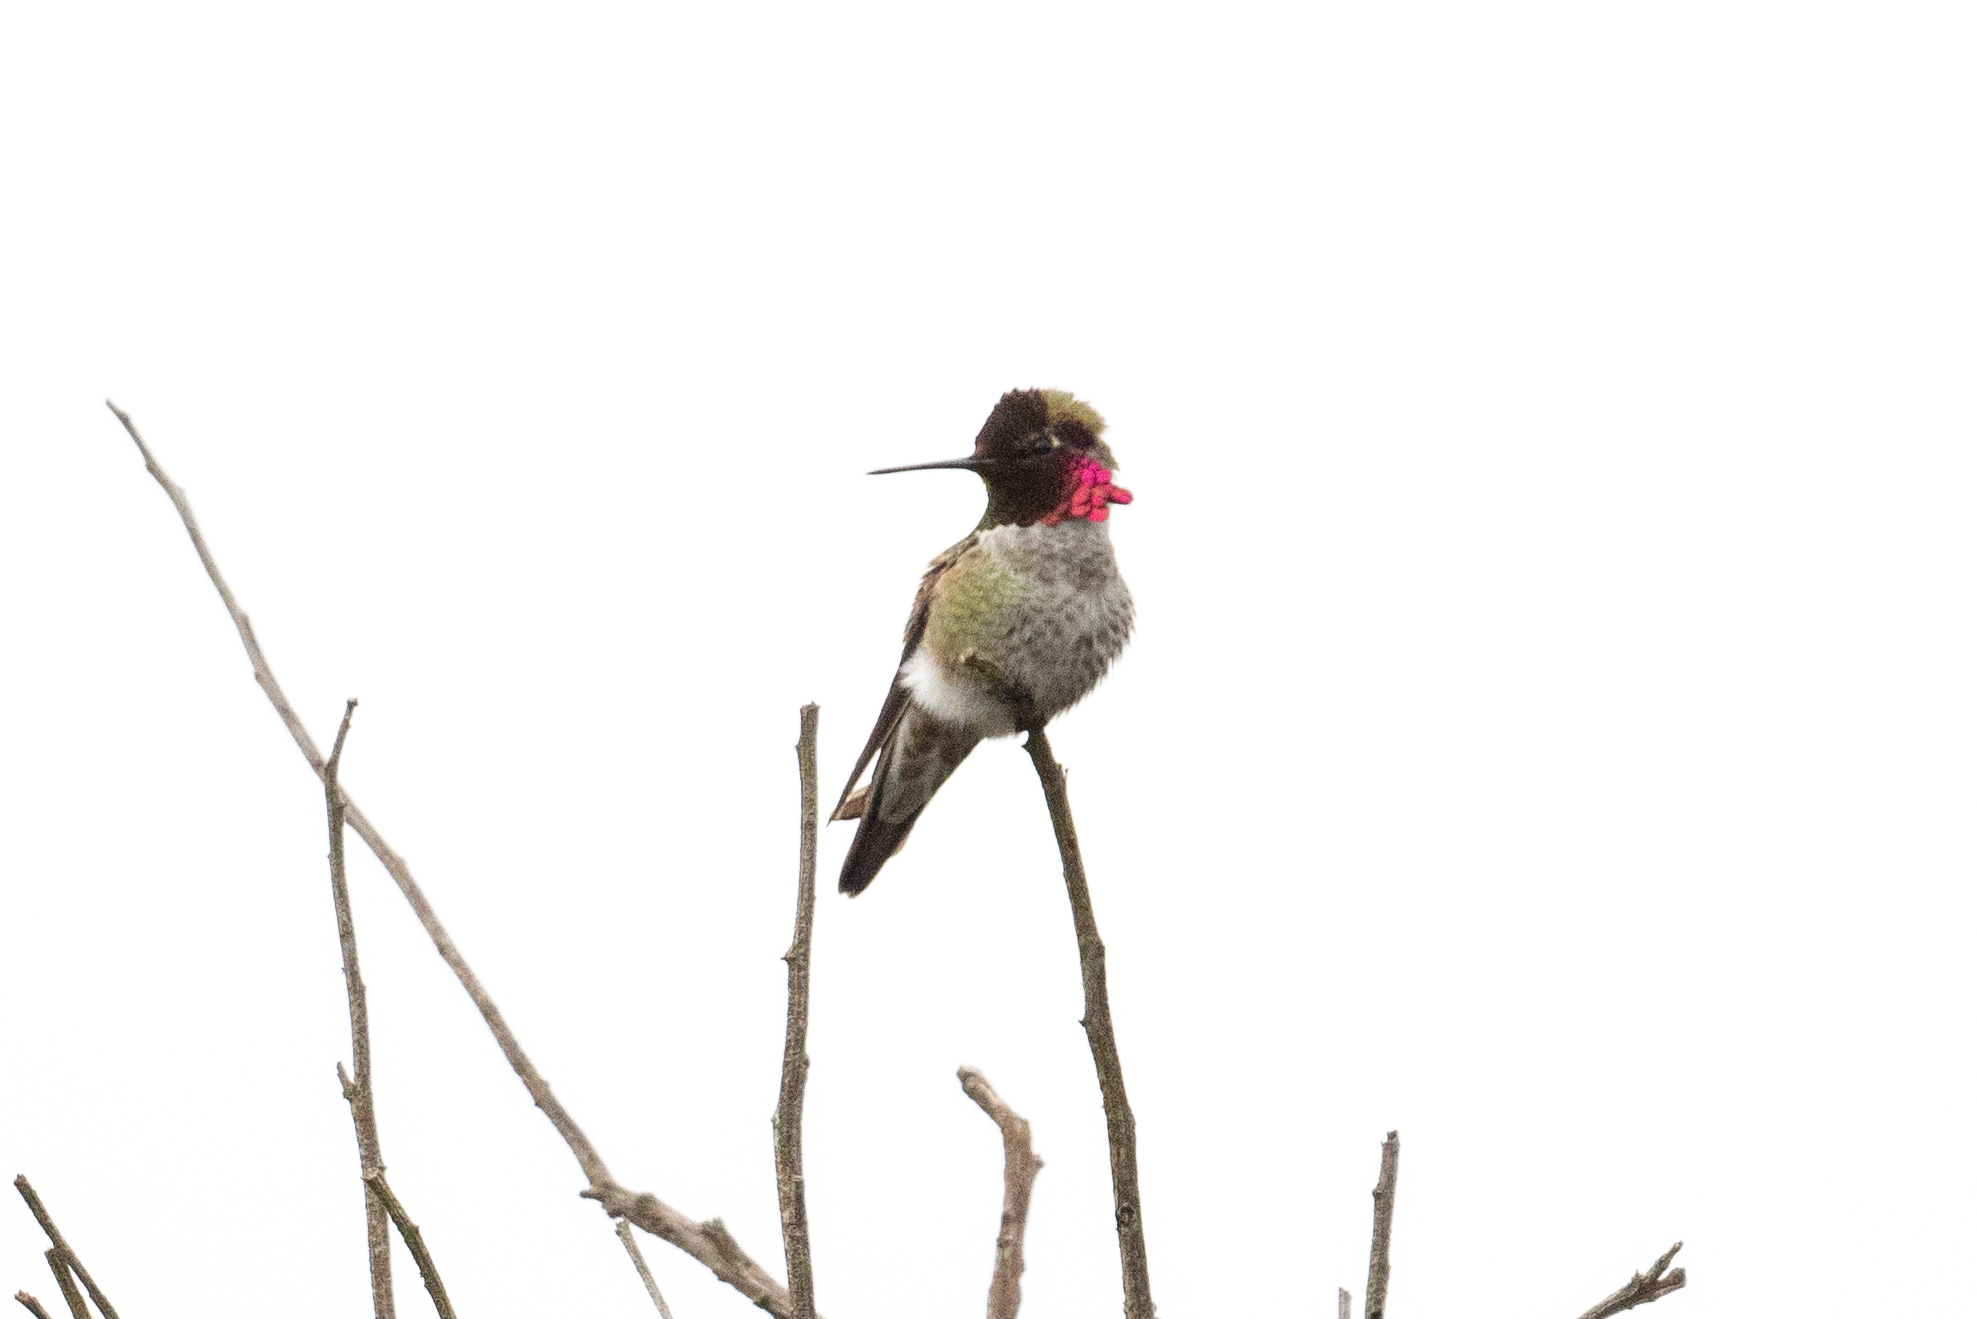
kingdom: Animalia
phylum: Chordata
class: Aves
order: Apodiformes
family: Trochilidae
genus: Calypte
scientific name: Calypte anna
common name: Anna's hummingbird
